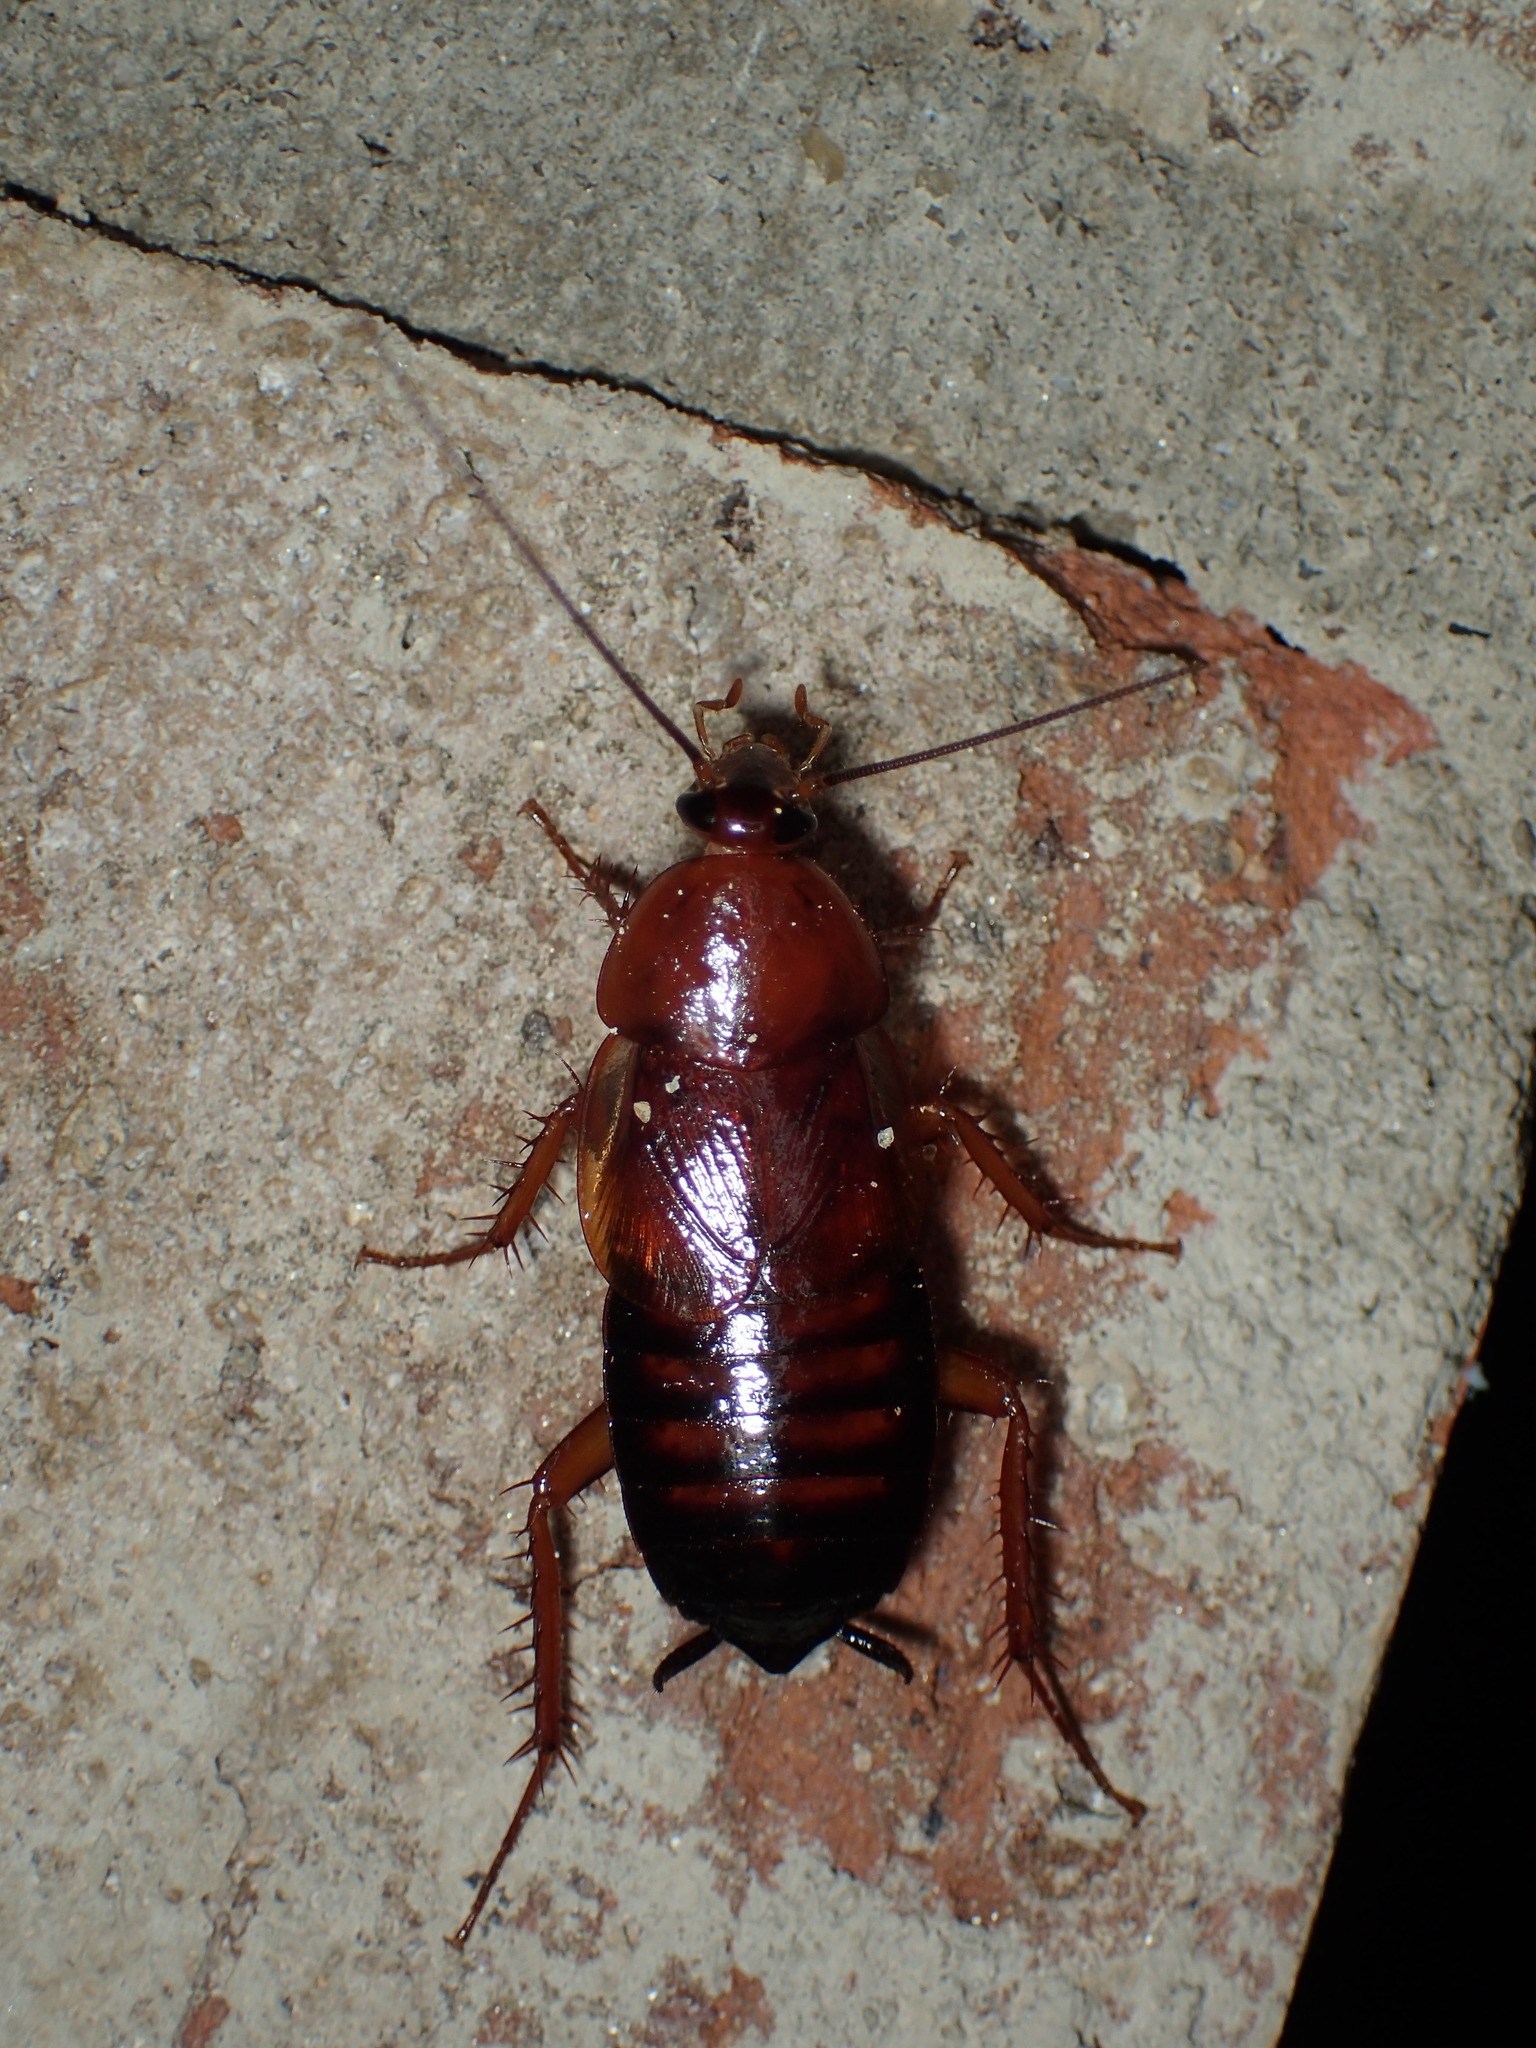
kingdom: Animalia
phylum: Arthropoda
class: Insecta
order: Blattodea
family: Ectobiidae
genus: Parcoblatta
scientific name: Parcoblatta lata
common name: Broad wood cockroach
